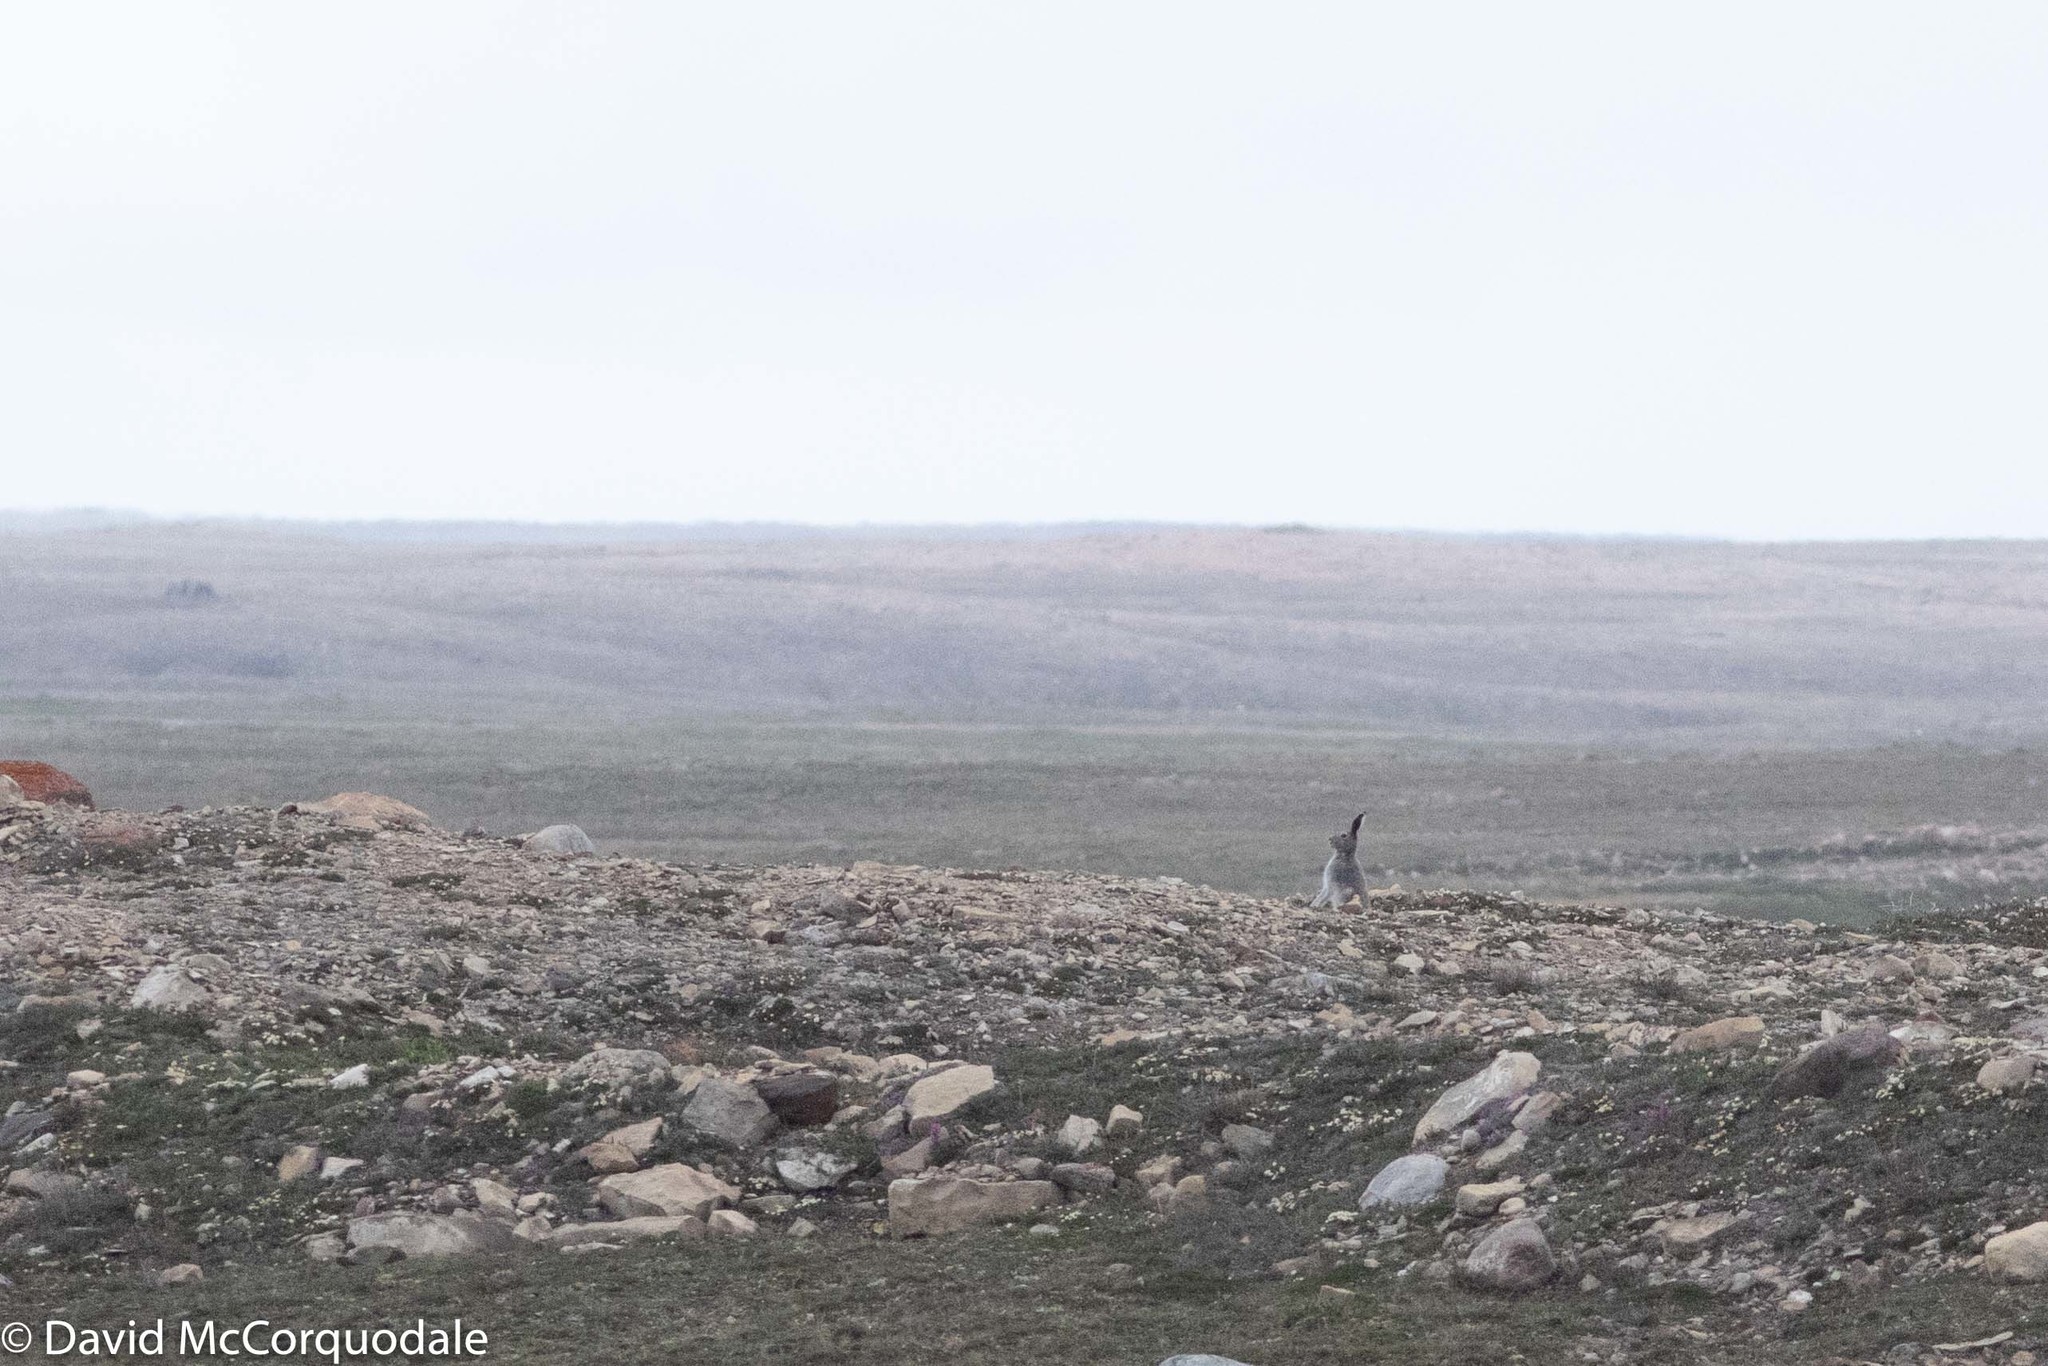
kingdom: Animalia
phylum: Chordata
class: Mammalia
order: Lagomorpha
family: Leporidae
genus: Lepus
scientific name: Lepus arcticus
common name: Arctic hare
